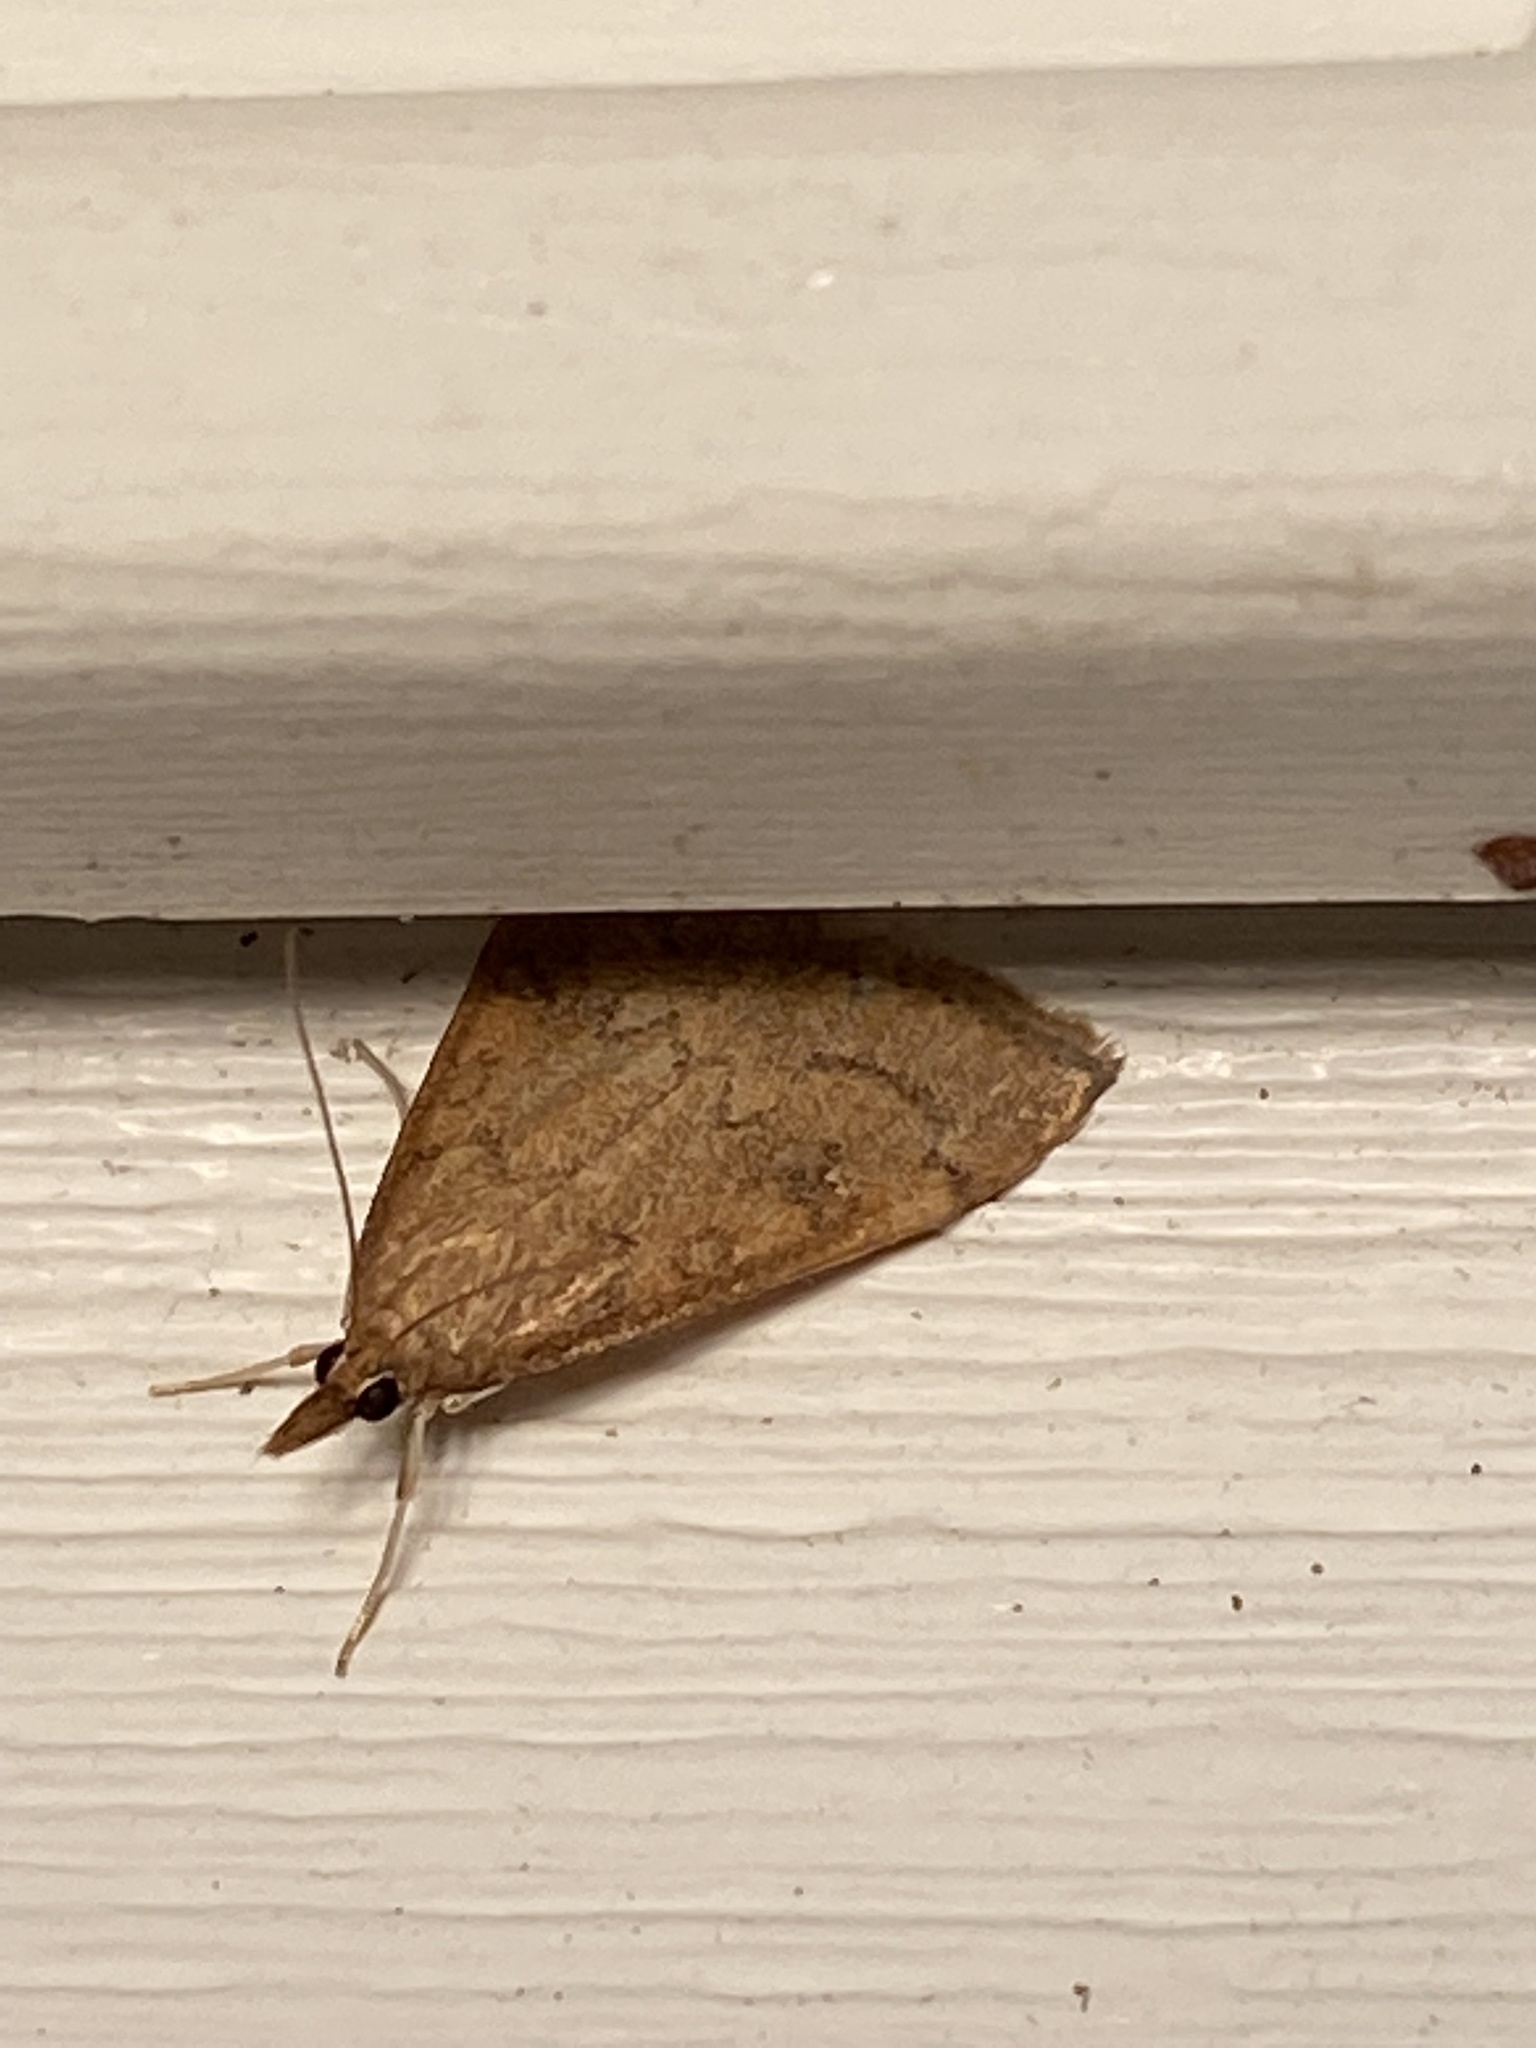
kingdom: Animalia
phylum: Arthropoda
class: Insecta
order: Lepidoptera
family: Crambidae
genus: Udea
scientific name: Udea rubigalis
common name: Celery leaftier moth
